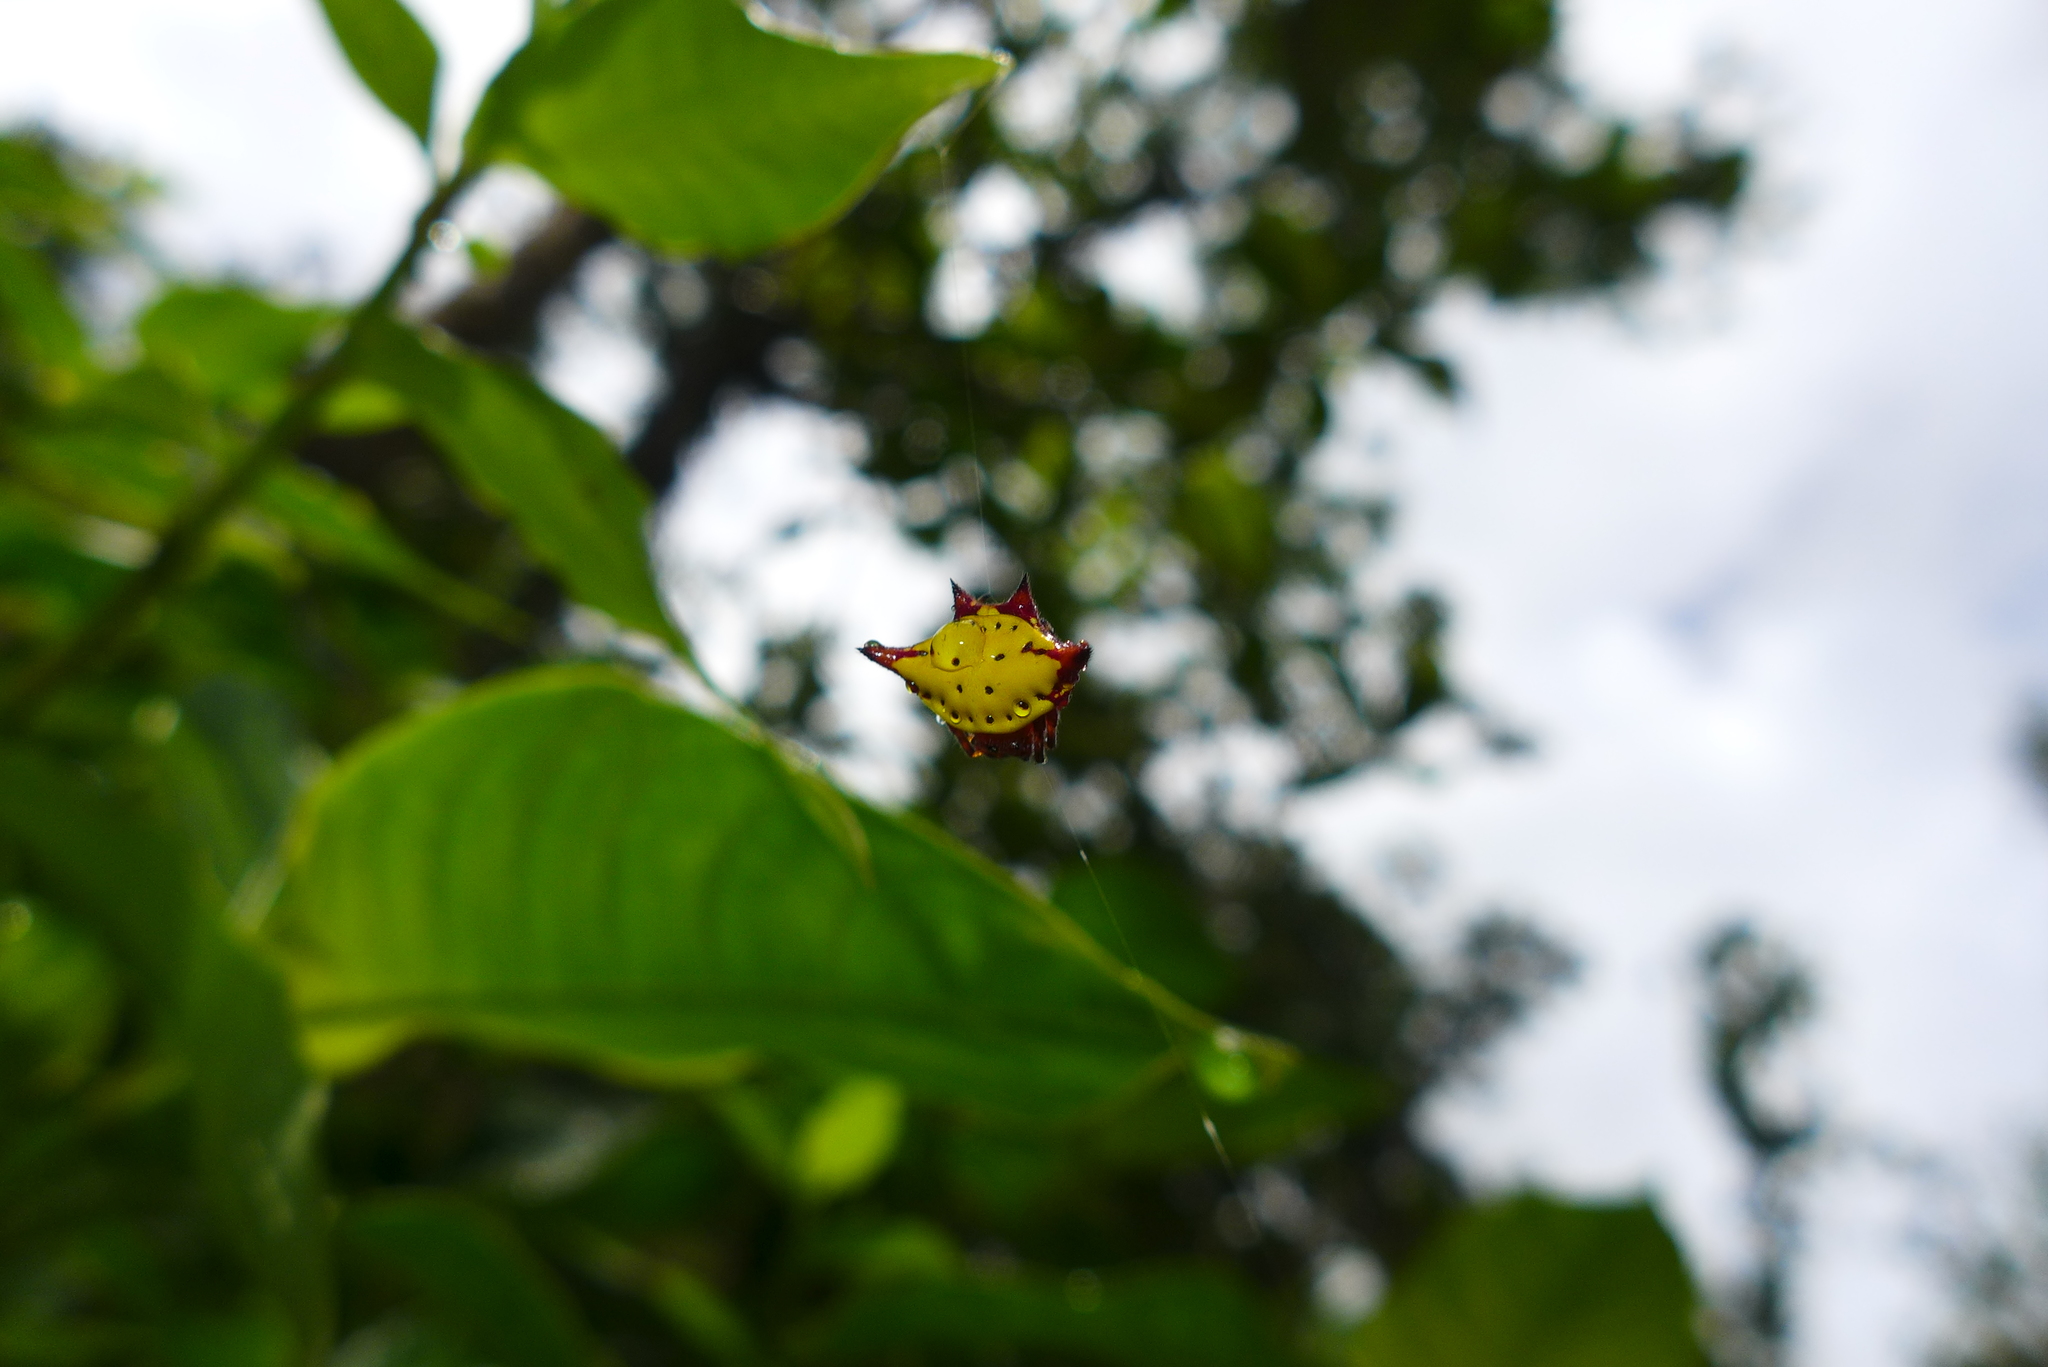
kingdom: Animalia
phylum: Arthropoda
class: Arachnida
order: Araneae
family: Araneidae
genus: Gasteracantha
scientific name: Gasteracantha cancriformis
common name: Orb weavers
